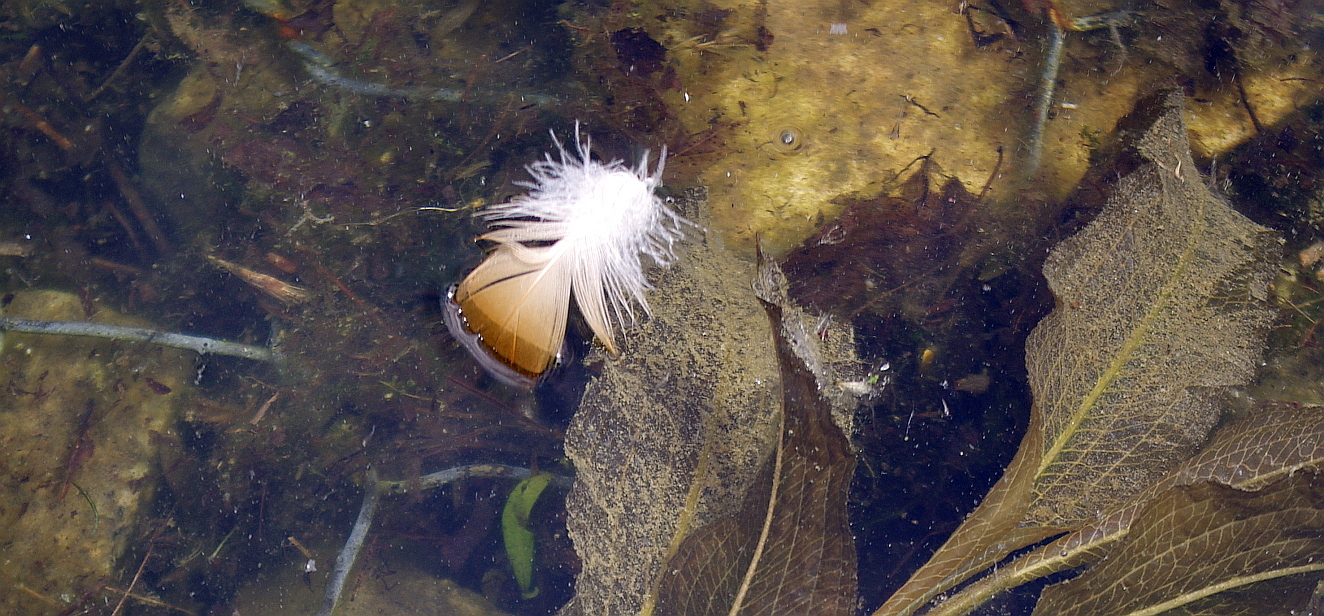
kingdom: Animalia
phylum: Chordata
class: Aves
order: Anseriformes
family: Anatidae
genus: Tadorna
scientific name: Tadorna ferruginea
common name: Ruddy shelduck
